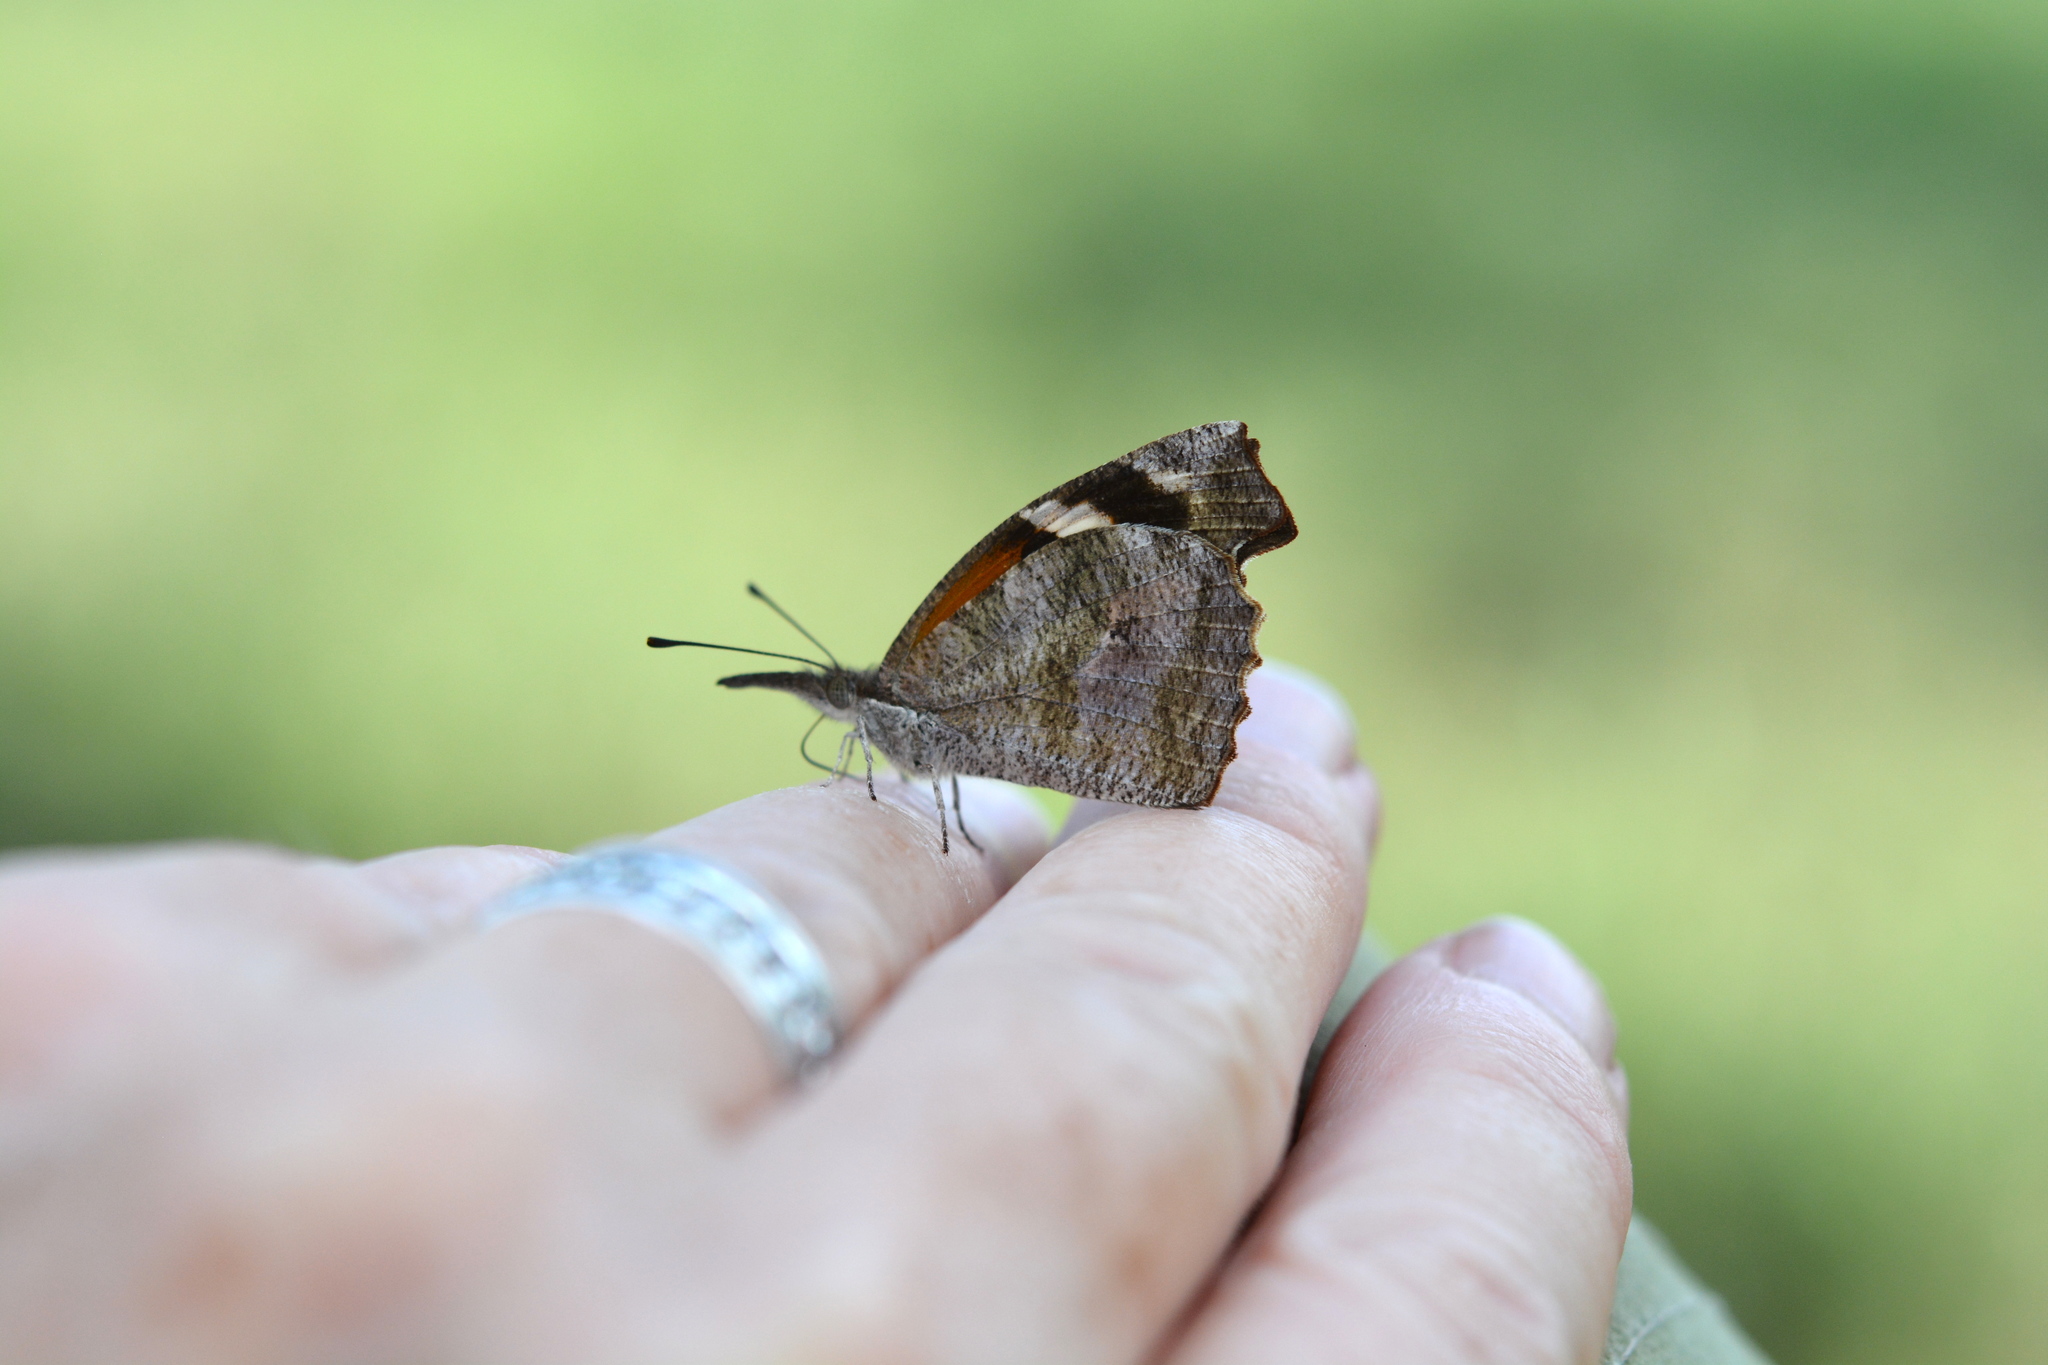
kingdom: Animalia
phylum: Arthropoda
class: Insecta
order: Lepidoptera
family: Nymphalidae
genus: Libytheana
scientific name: Libytheana carinenta
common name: American snout
